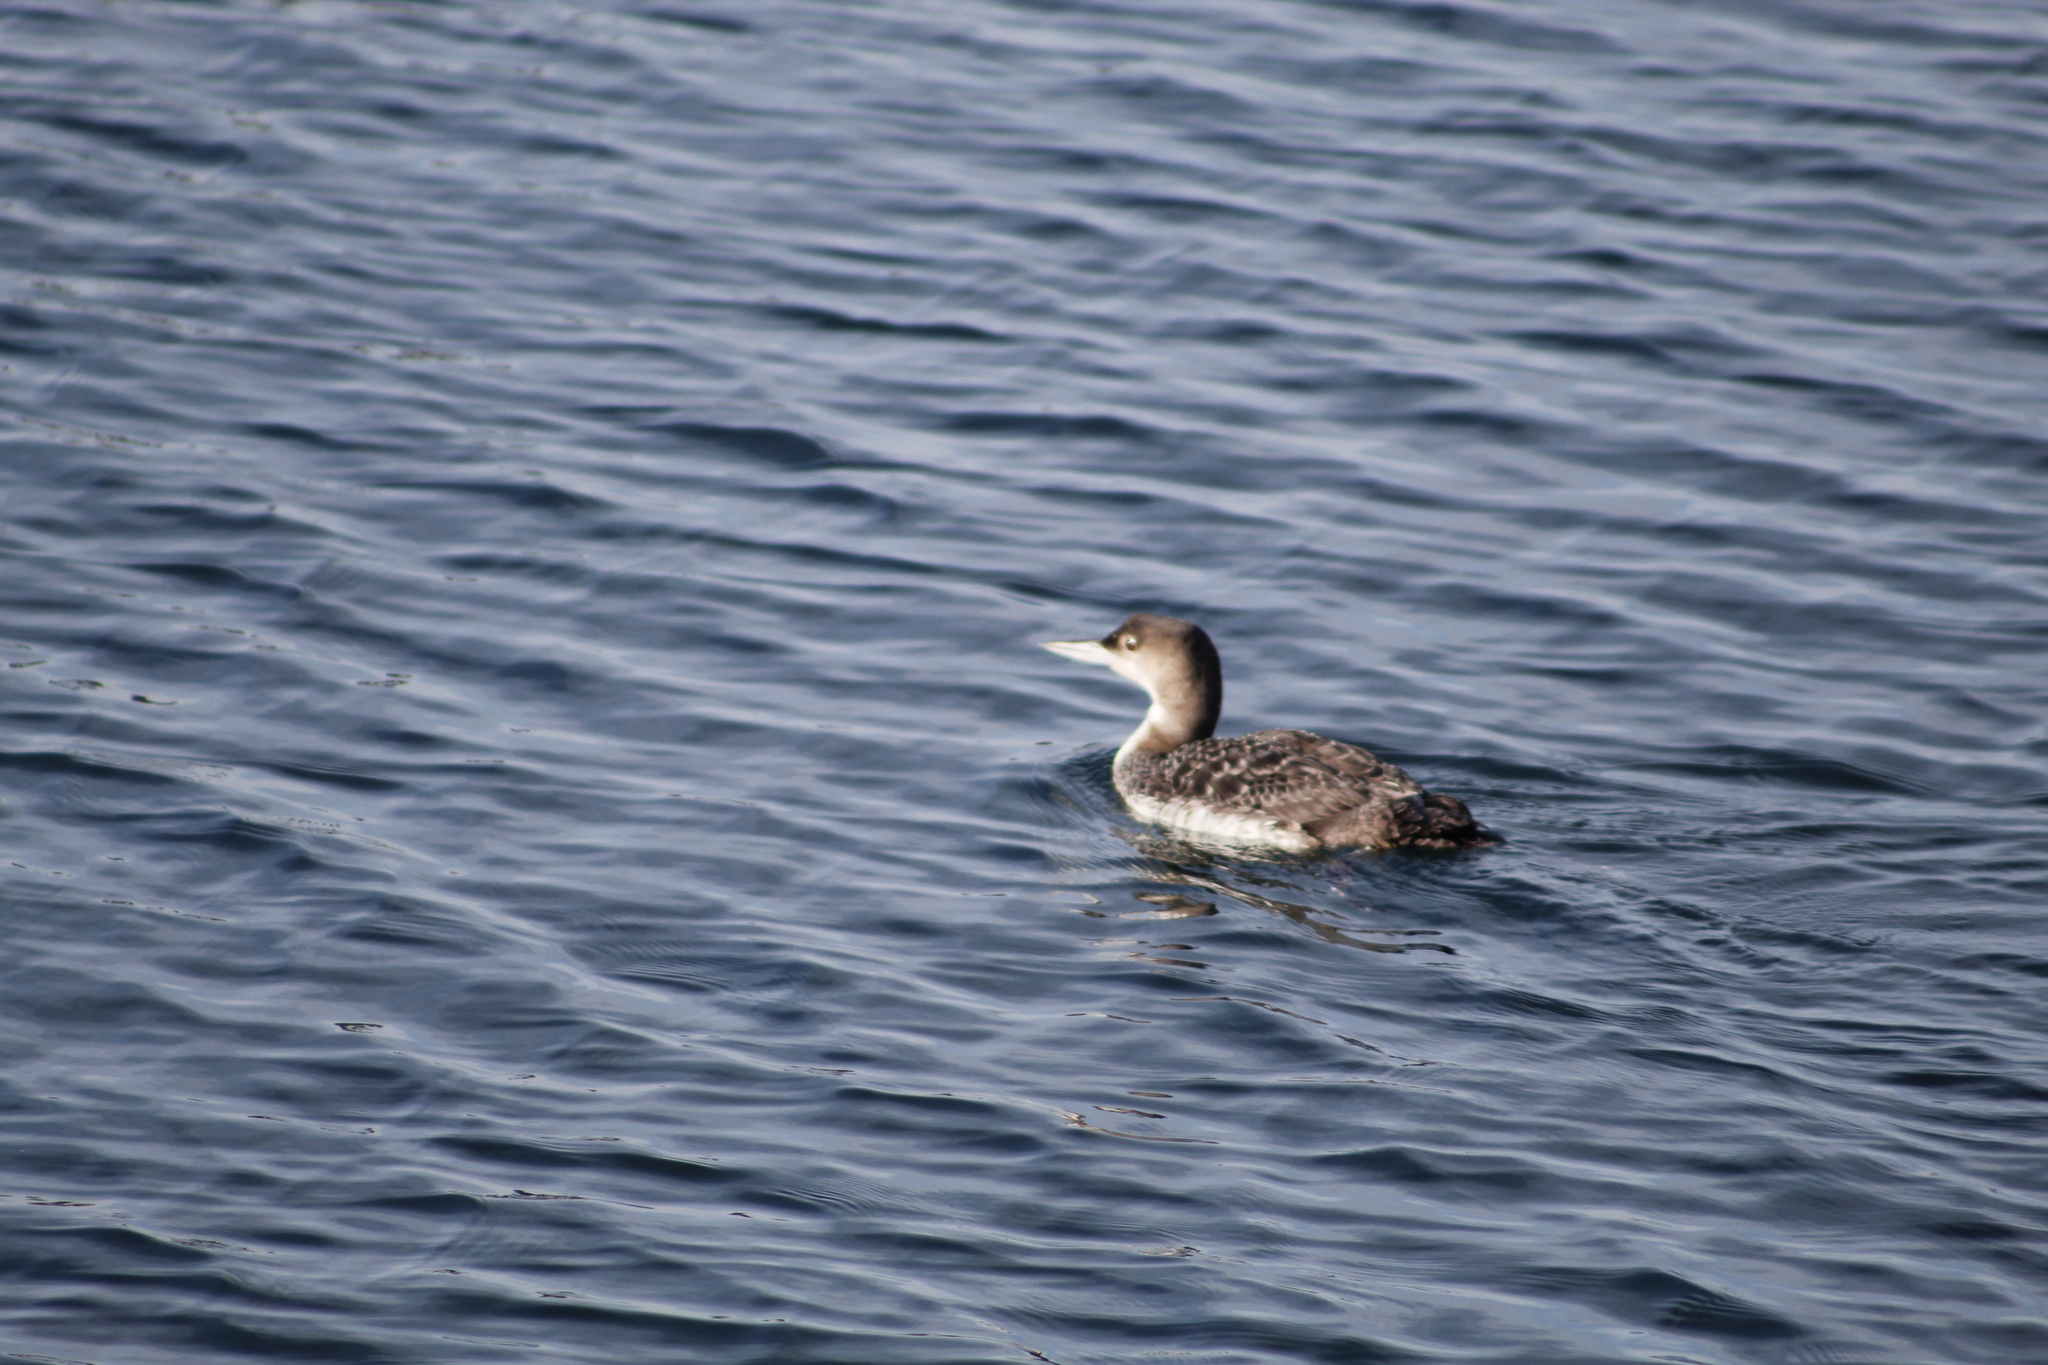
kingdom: Animalia
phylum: Chordata
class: Aves
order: Gaviiformes
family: Gaviidae
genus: Gavia
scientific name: Gavia immer
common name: Common loon
